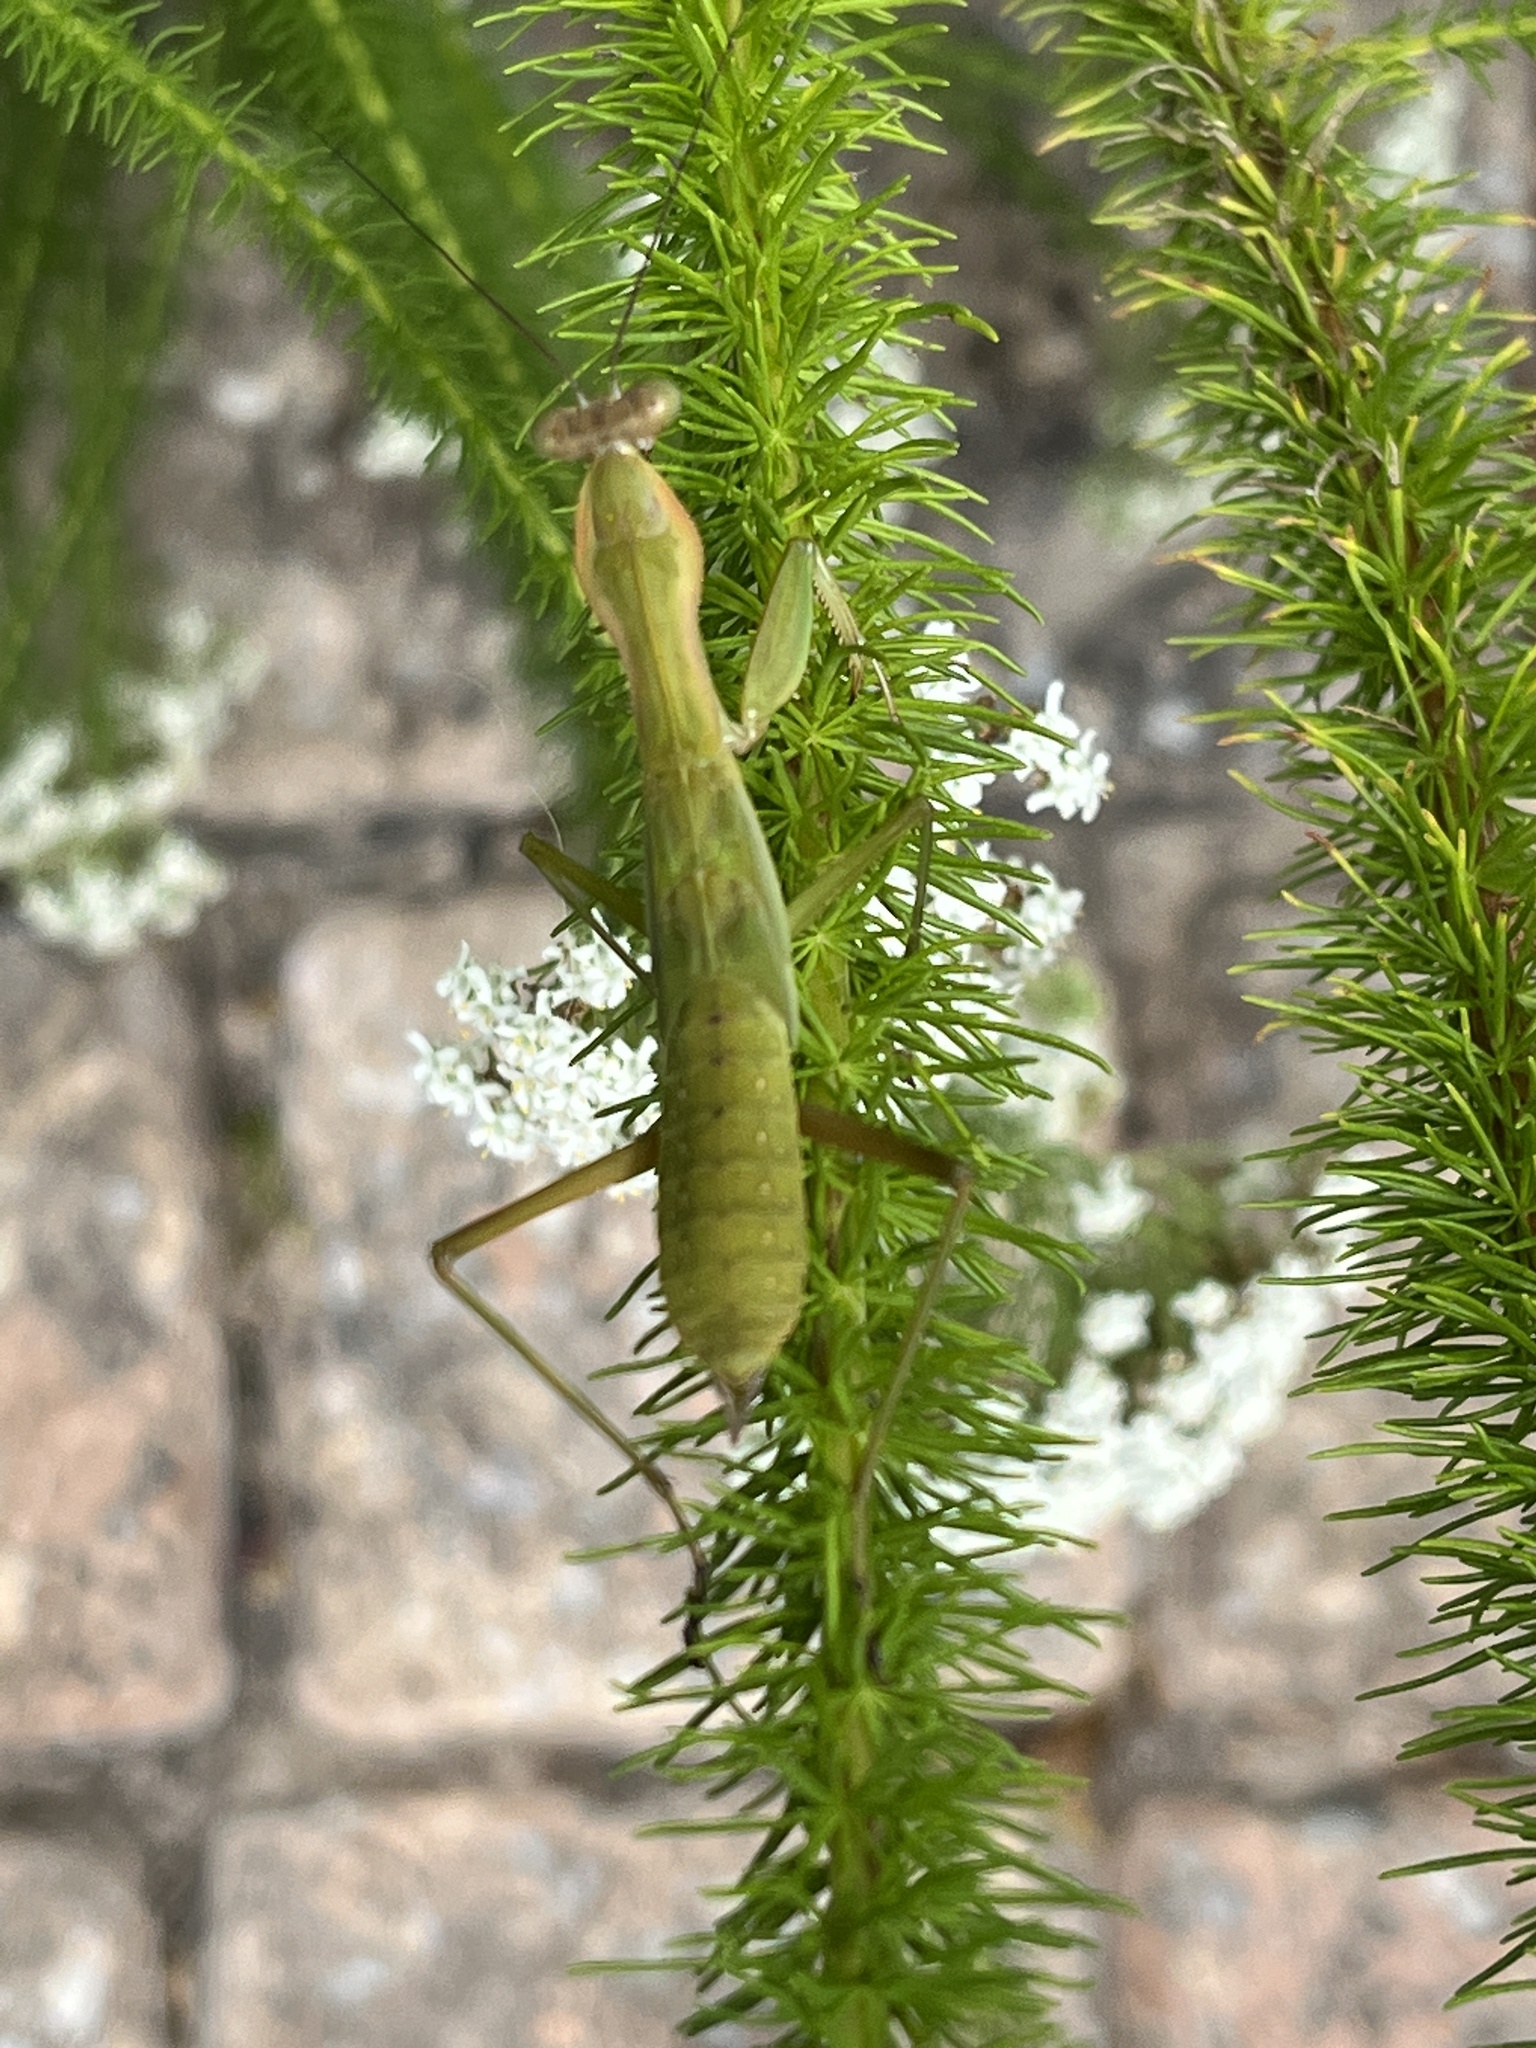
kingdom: Animalia
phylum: Arthropoda
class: Insecta
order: Mantodea
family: Mantidae
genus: Polyspilota
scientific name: Polyspilota aeruginosa
